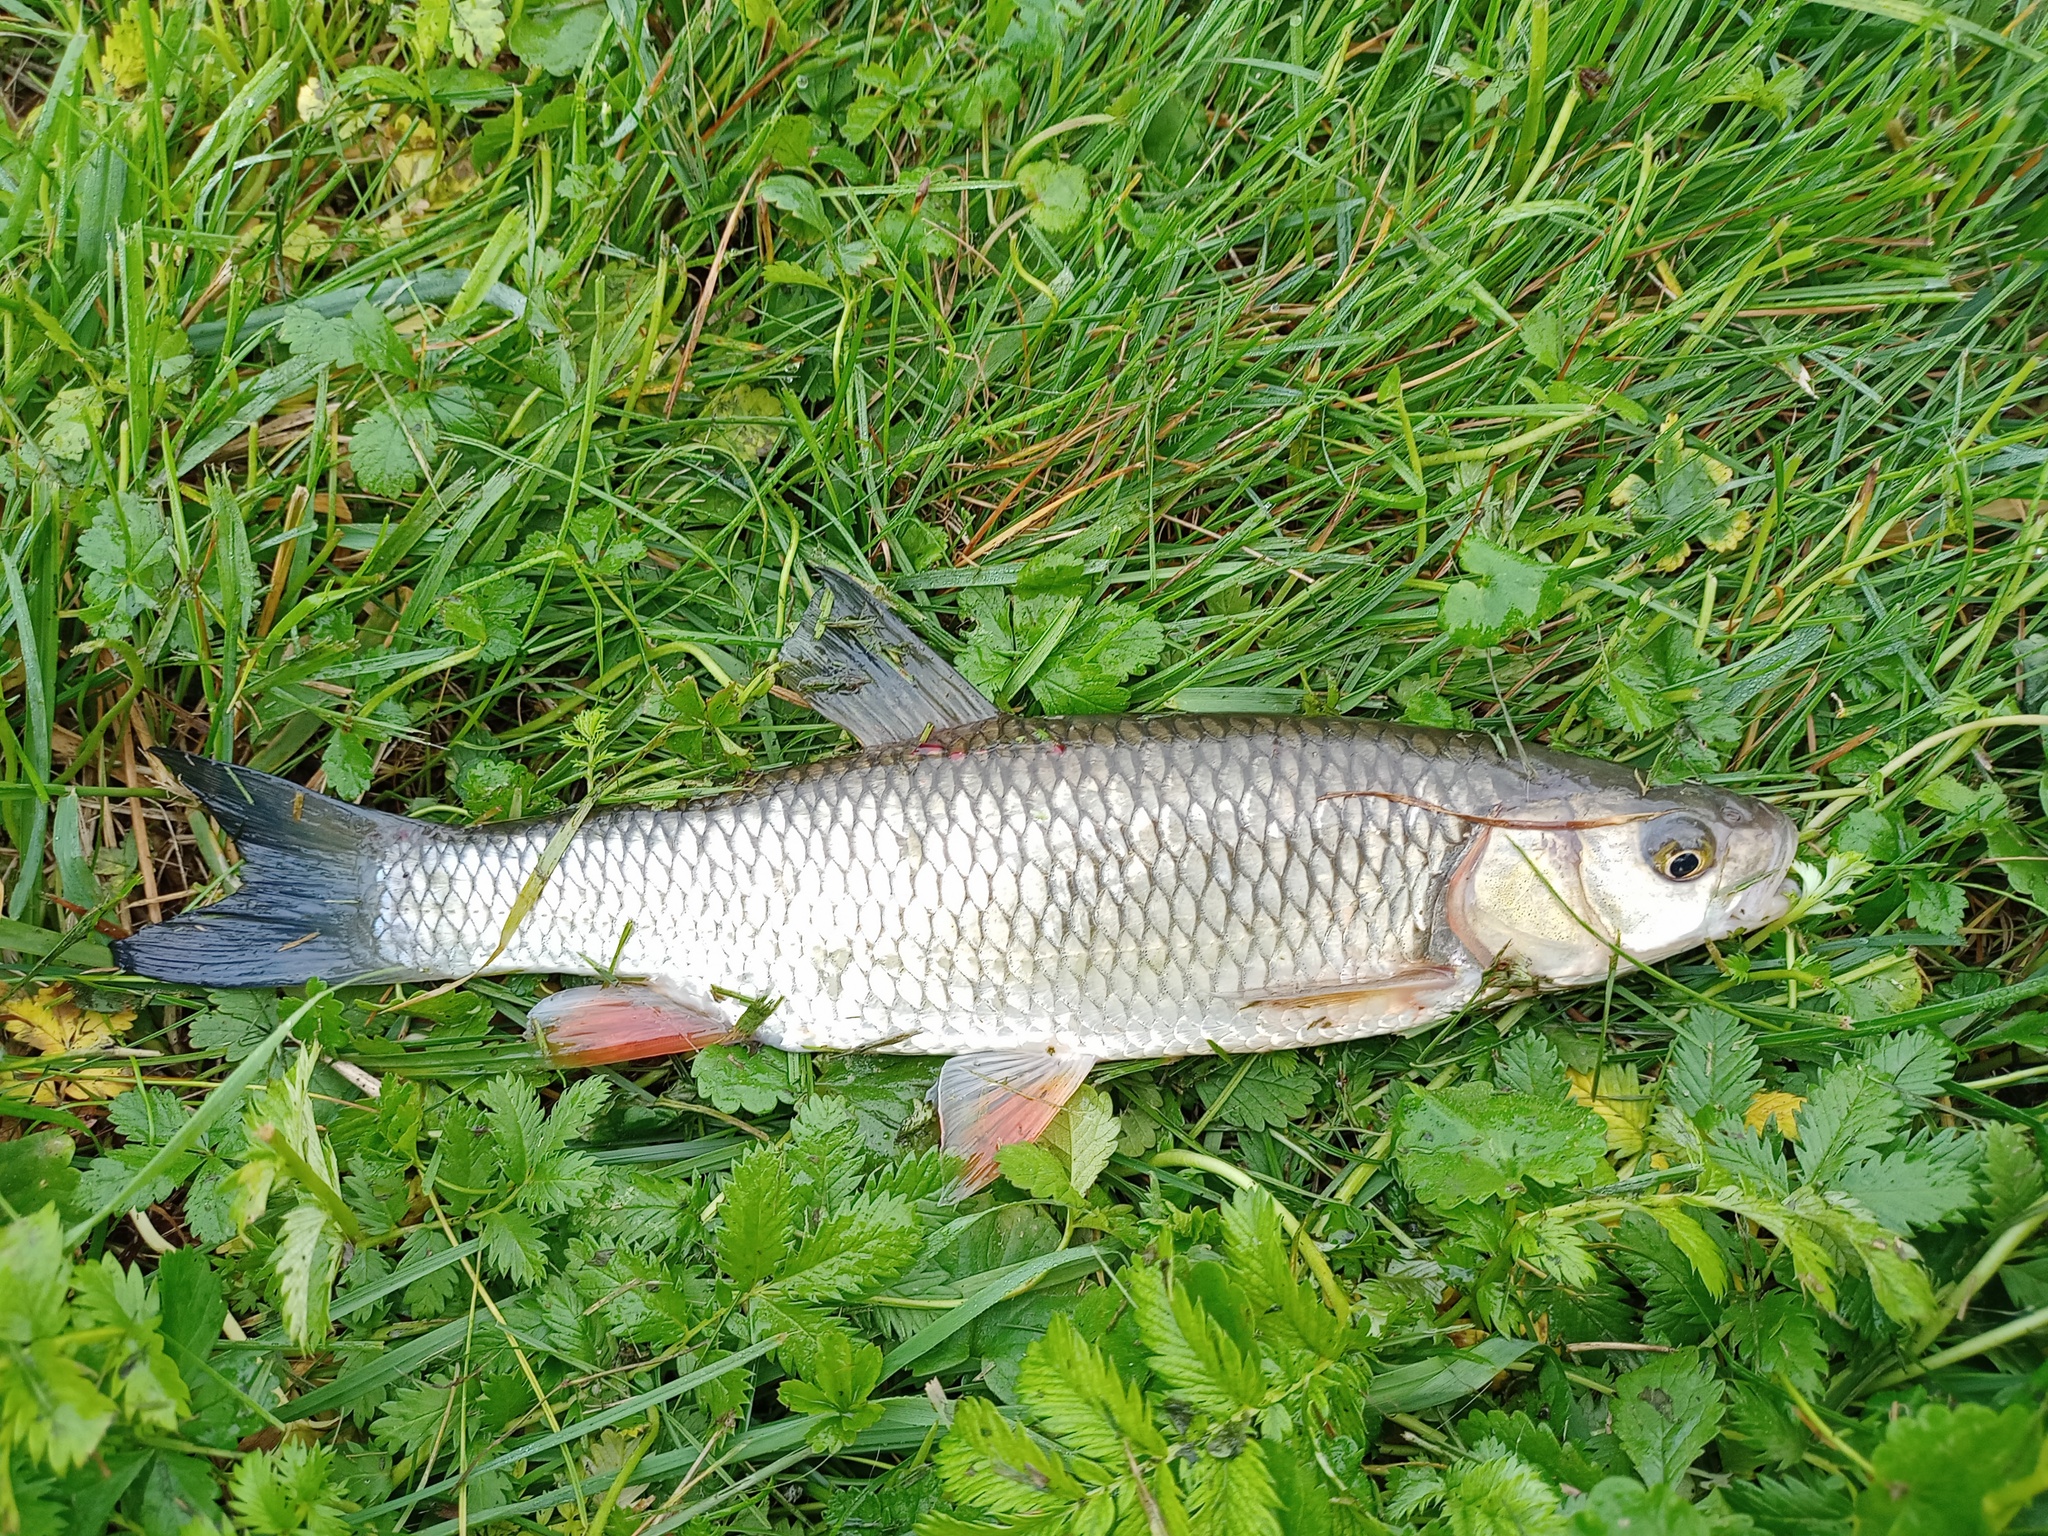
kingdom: Animalia
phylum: Chordata
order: Cypriniformes
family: Cyprinidae
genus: Squalius
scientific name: Squalius cephalus
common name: Chub
